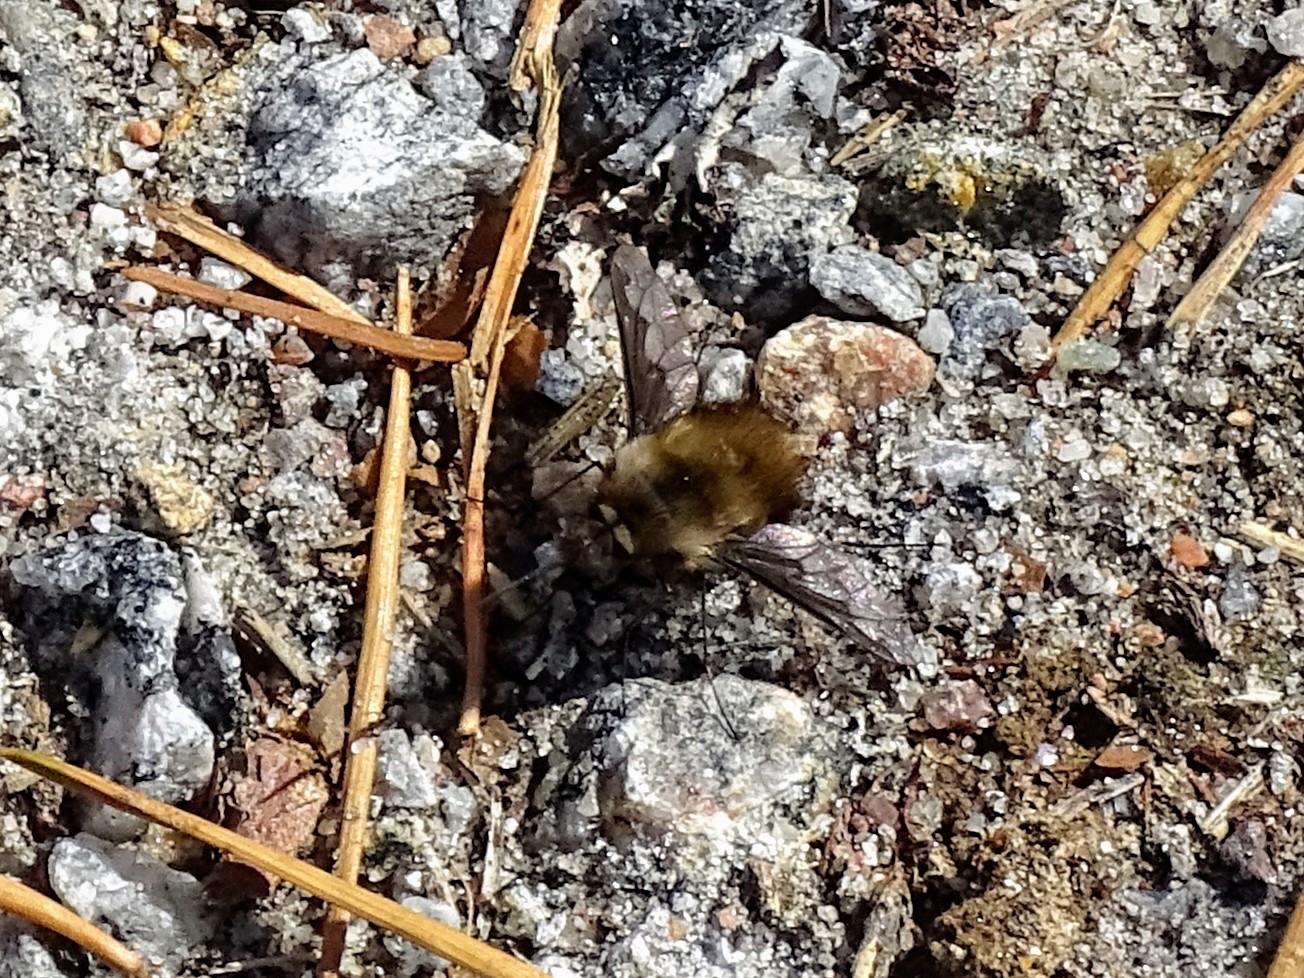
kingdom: Animalia
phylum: Arthropoda
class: Insecta
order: Diptera
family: Bombyliidae
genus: Bombylius
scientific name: Bombylius major
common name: Bee fly
